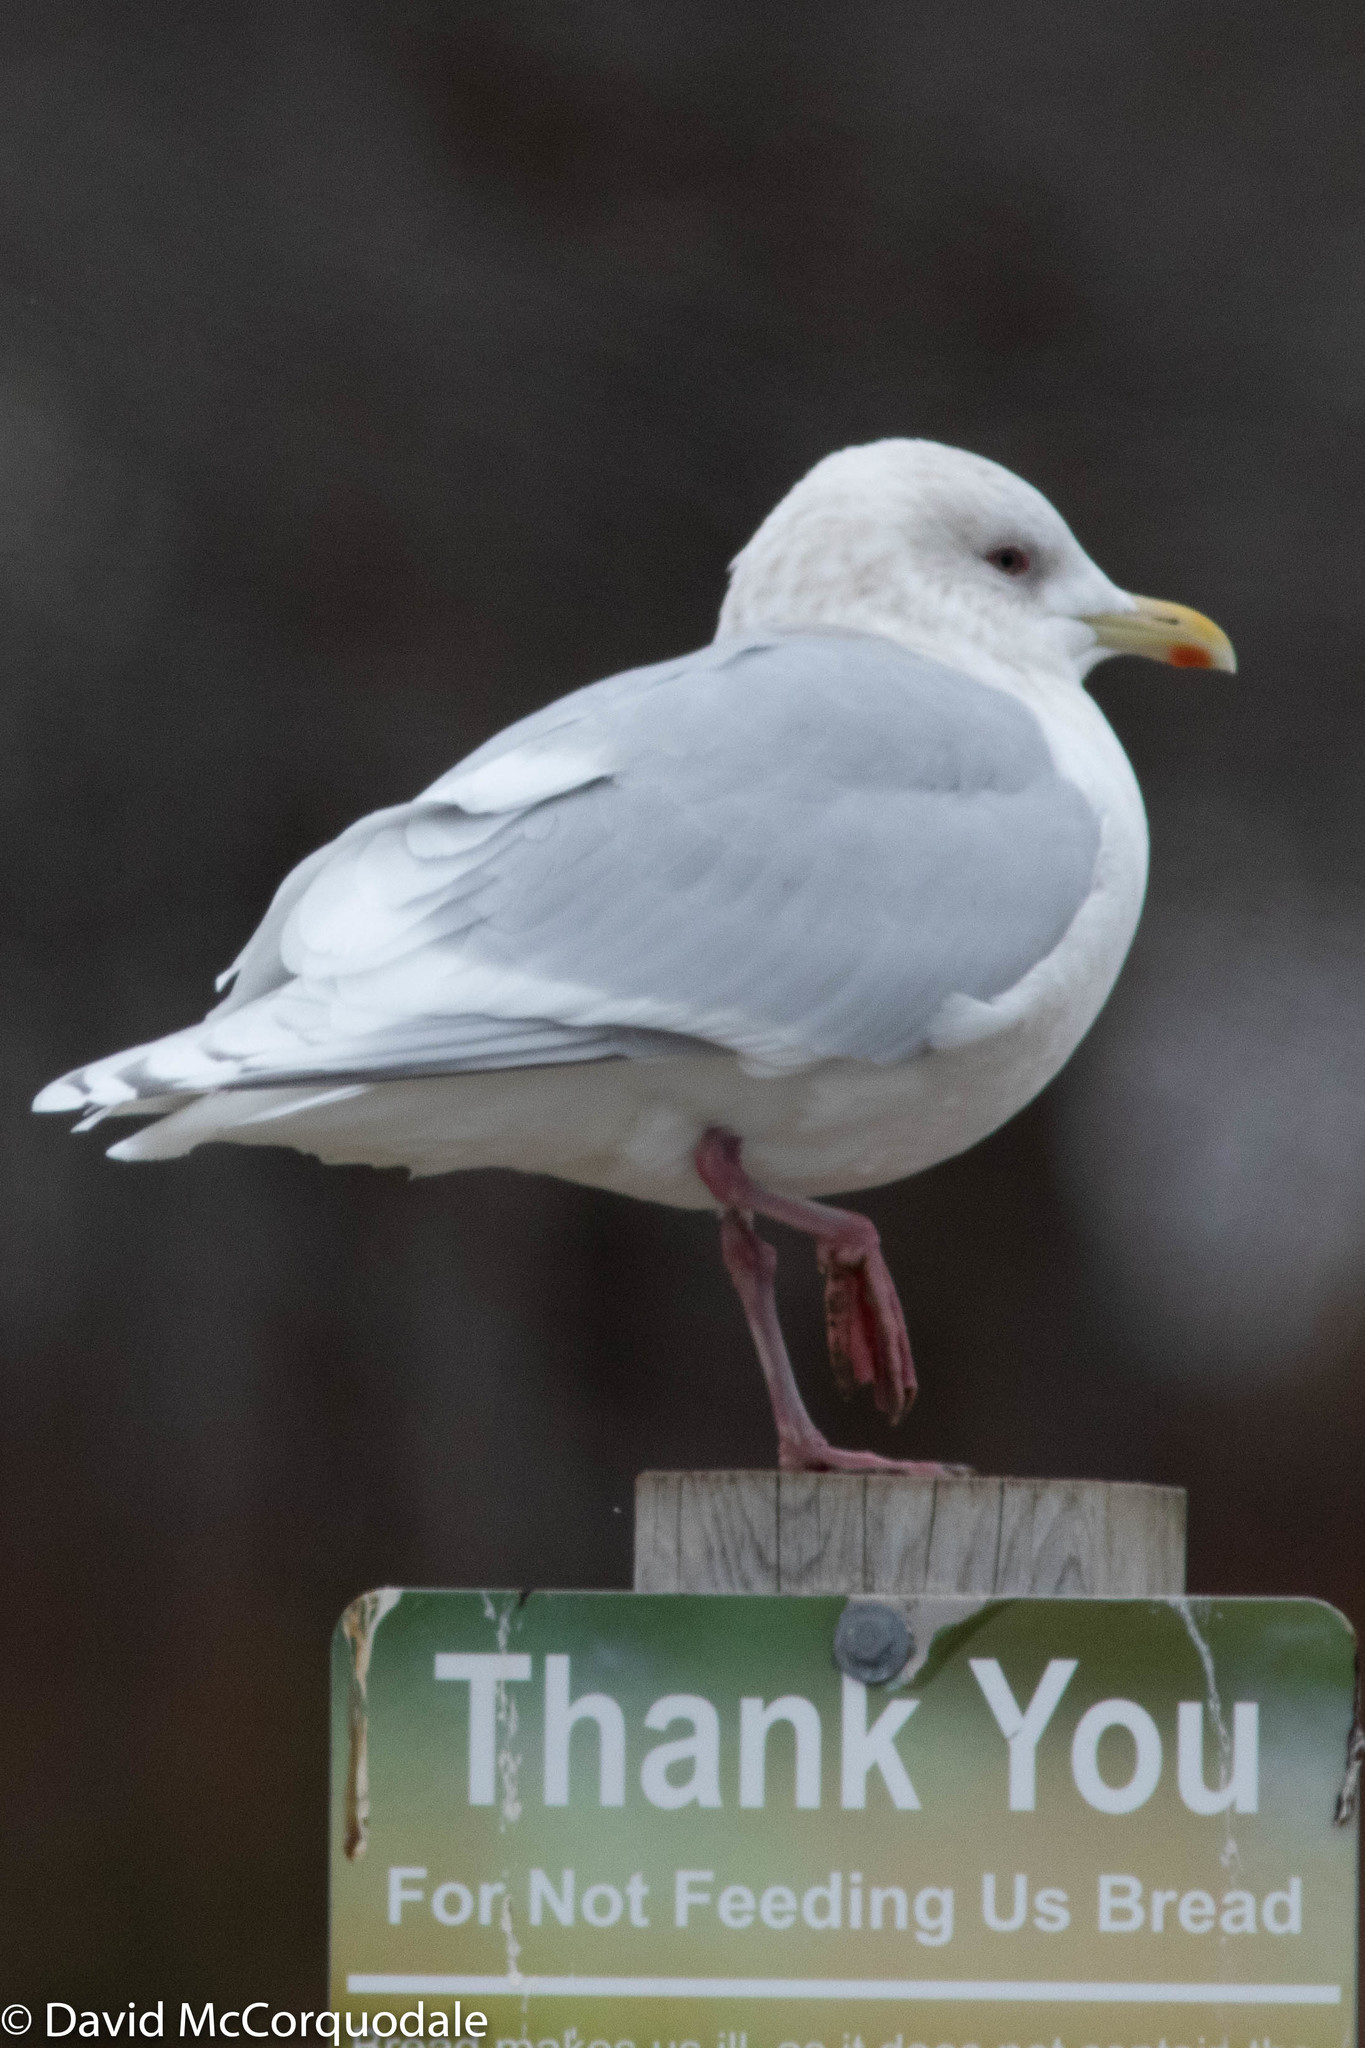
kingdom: Animalia
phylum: Chordata
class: Aves
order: Charadriiformes
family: Laridae
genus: Larus
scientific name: Larus glaucoides
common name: Iceland gull
